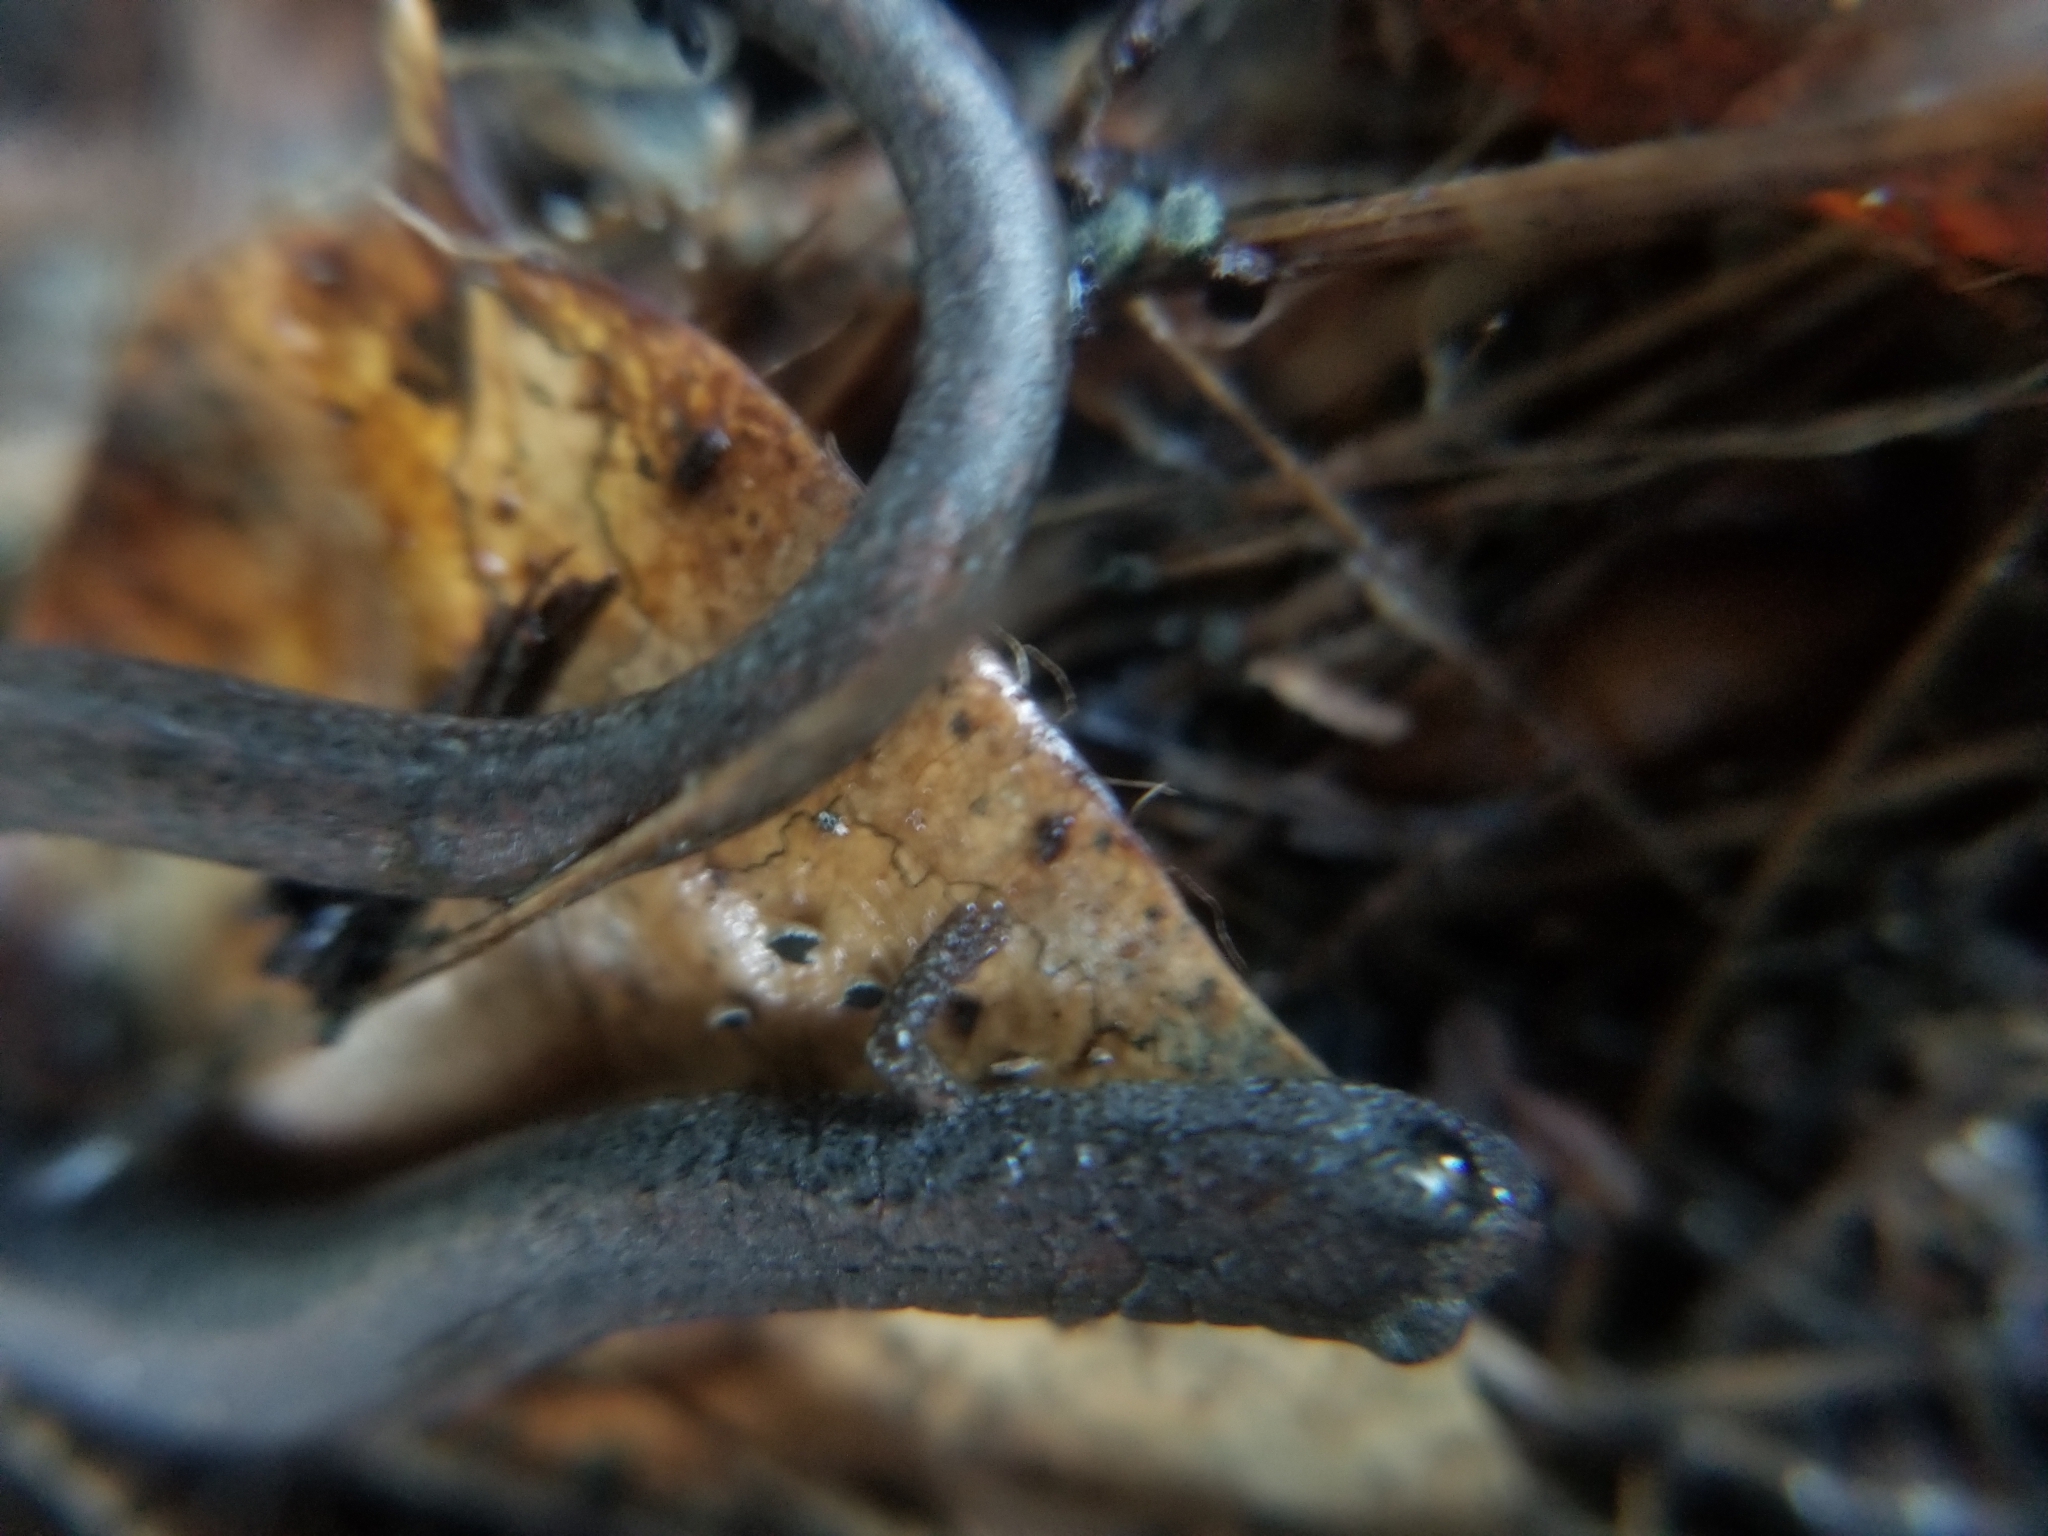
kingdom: Animalia
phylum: Chordata
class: Amphibia
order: Caudata
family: Plethodontidae
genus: Batrachoseps
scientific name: Batrachoseps gavilanensis
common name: Gabilan mountains slender salamander
